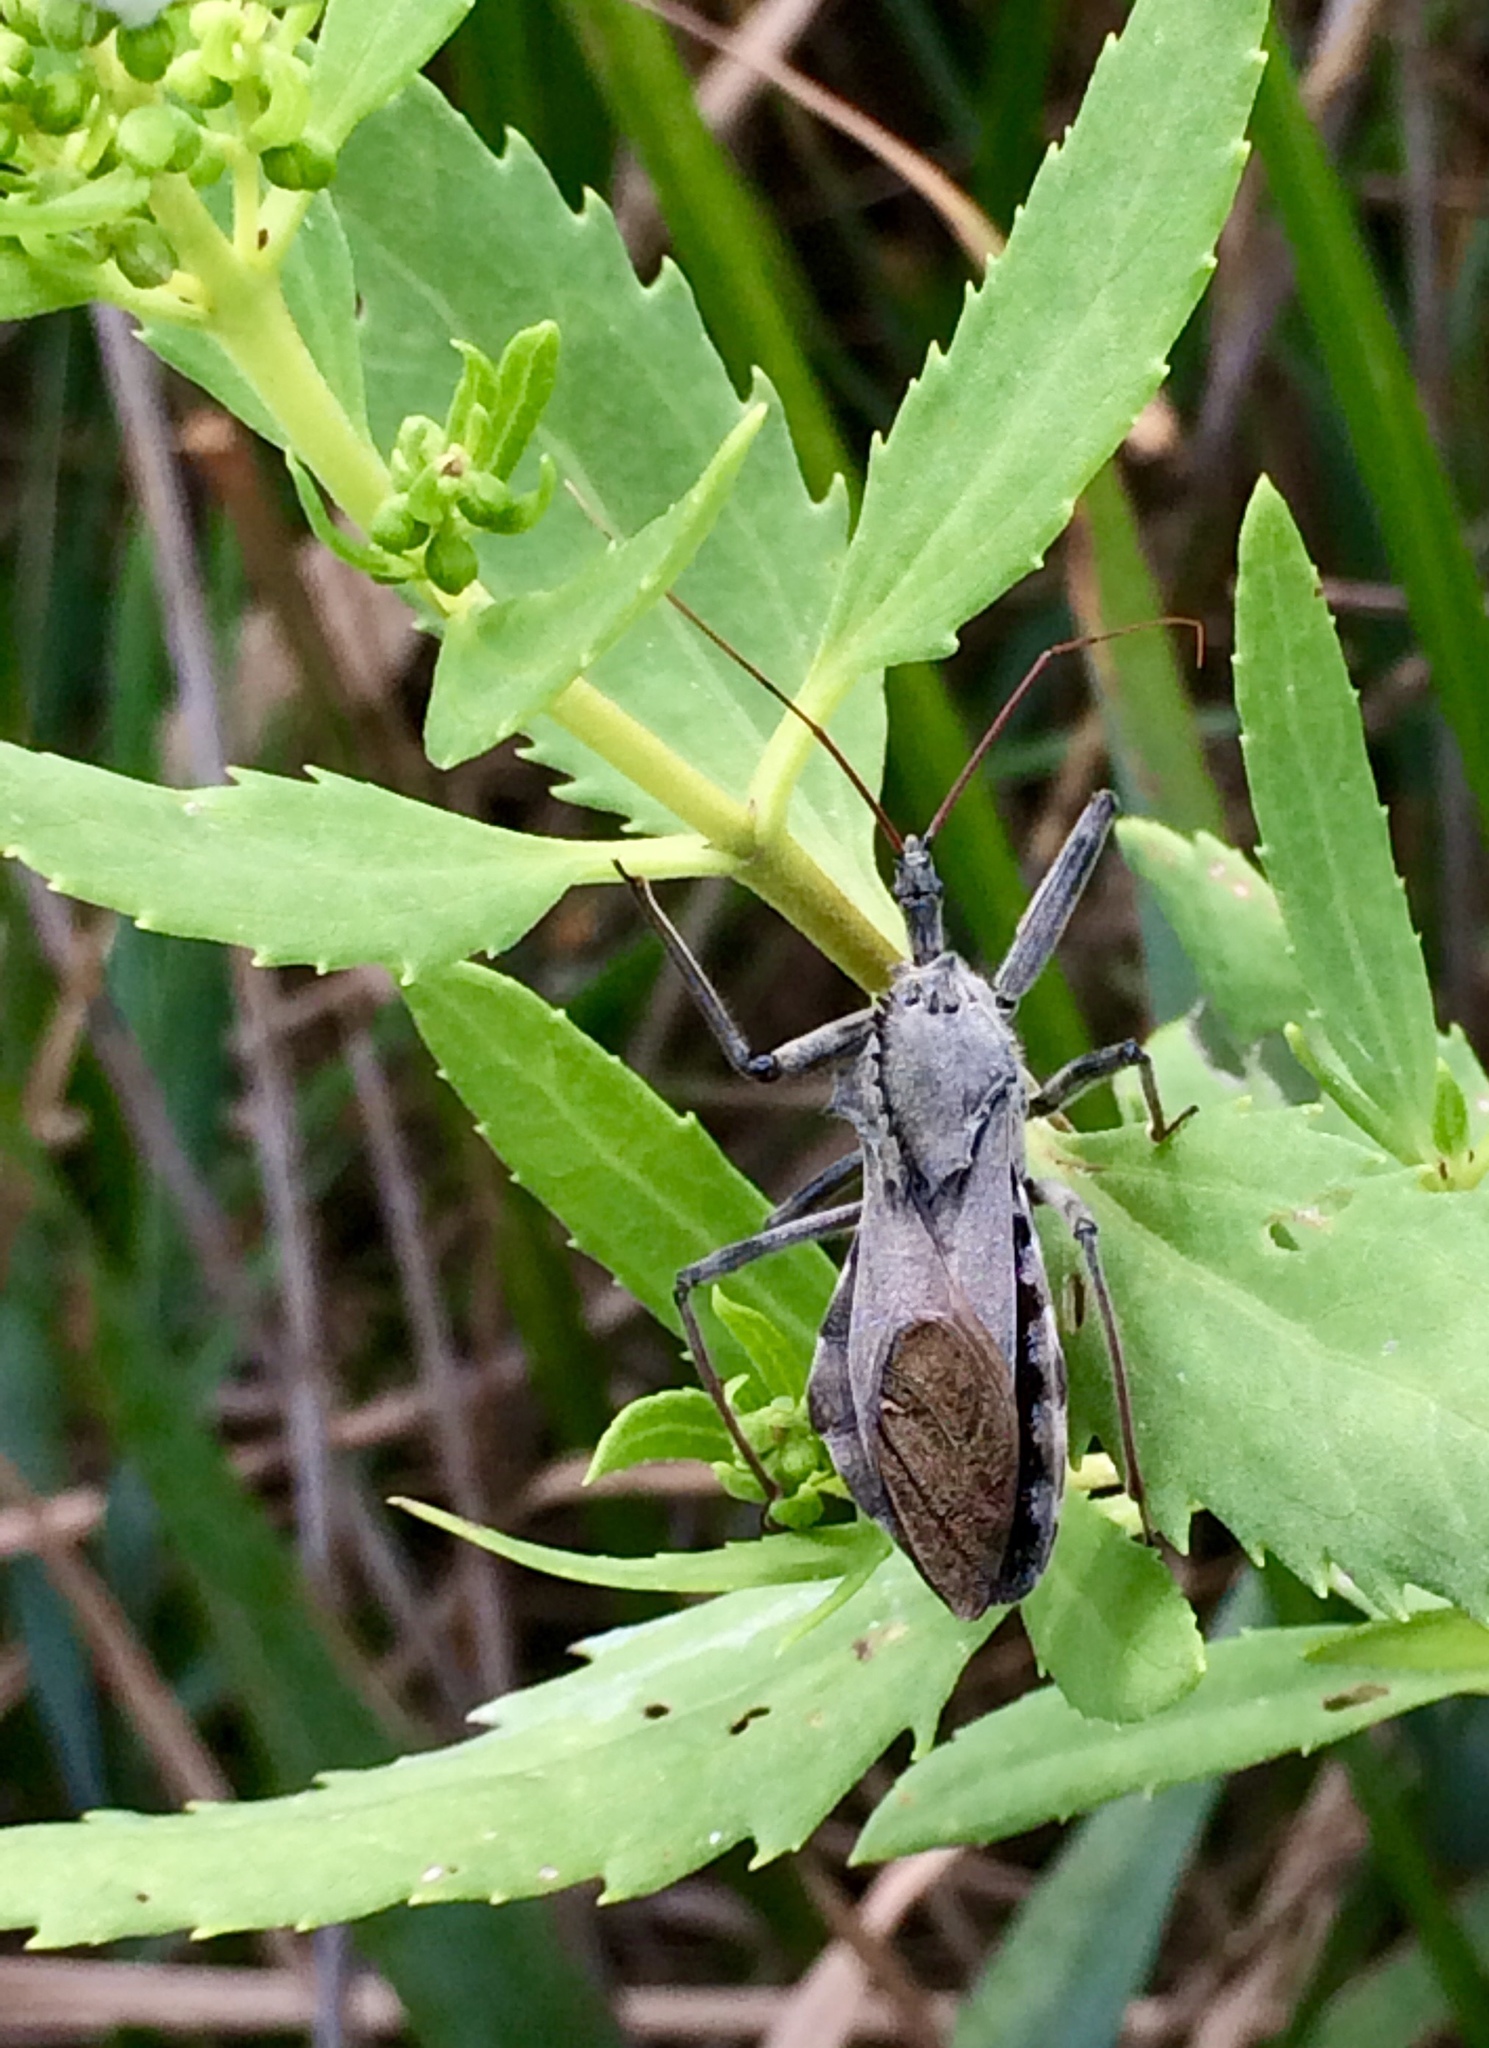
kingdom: Animalia
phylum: Arthropoda
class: Insecta
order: Hemiptera
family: Reduviidae
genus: Arilus
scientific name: Arilus cristatus
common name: North american wheel bug
